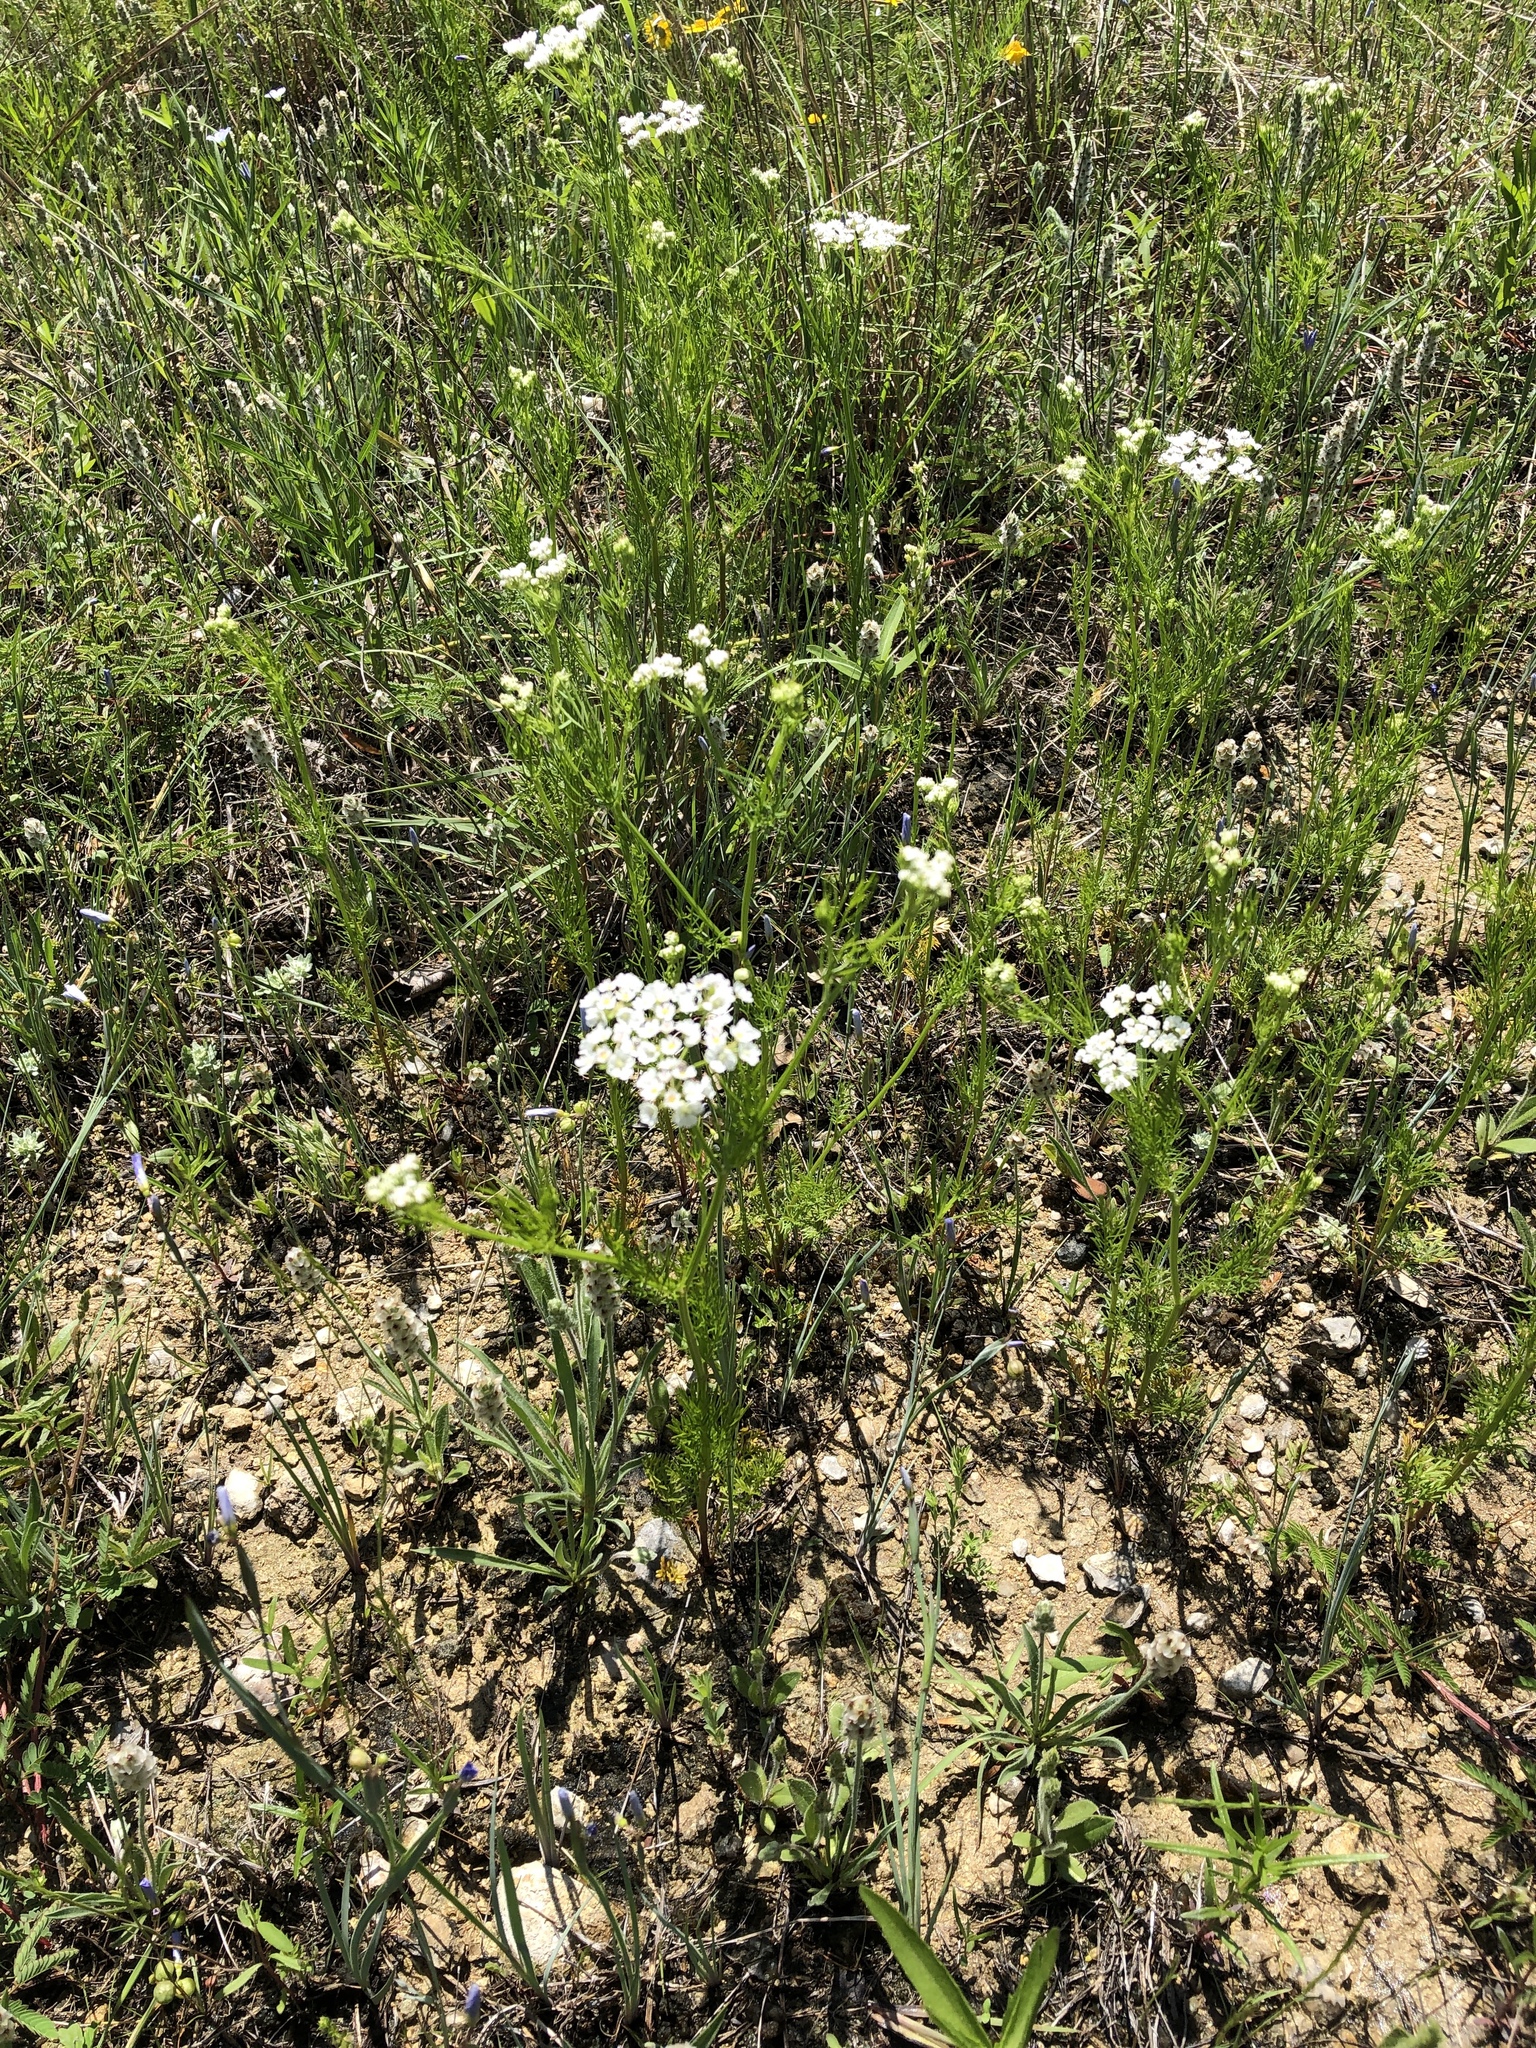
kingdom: Plantae
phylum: Tracheophyta
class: Magnoliopsida
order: Apiales
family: Apiaceae
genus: Atrema
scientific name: Atrema americanum
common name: Prairie-bishop
